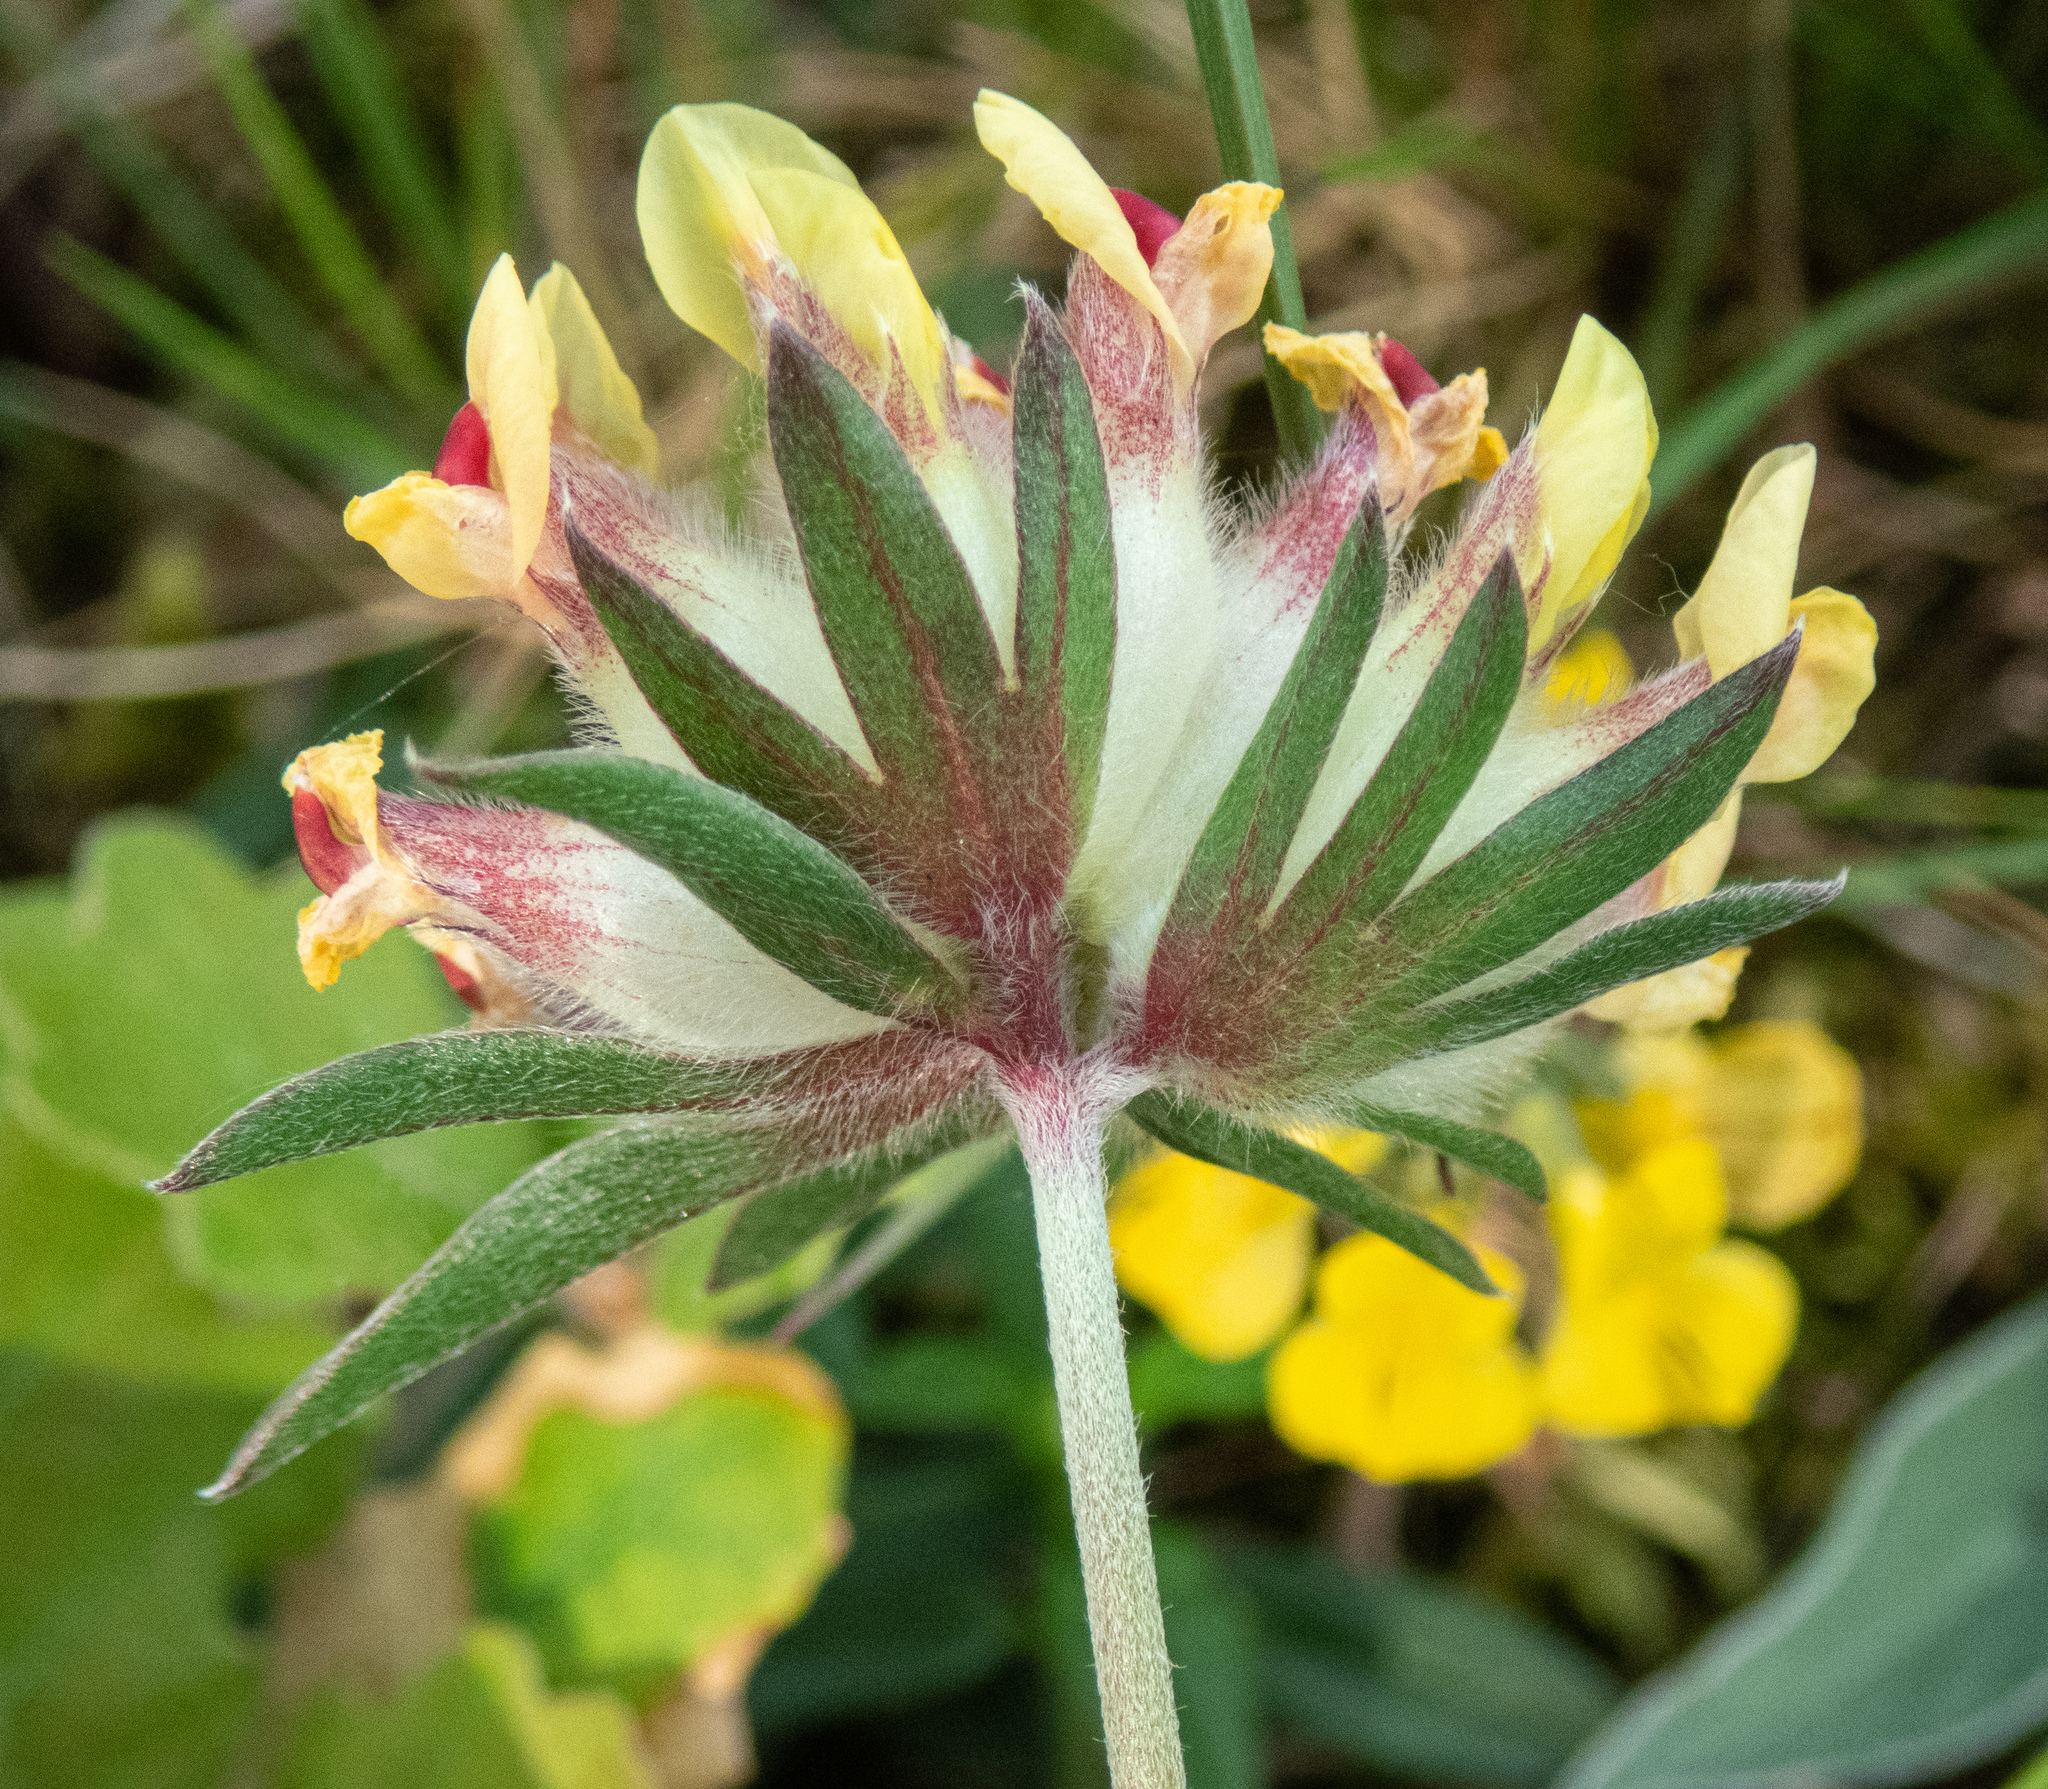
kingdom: Plantae
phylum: Tracheophyta
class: Magnoliopsida
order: Fabales
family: Fabaceae
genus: Anthyllis
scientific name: Anthyllis vulneraria
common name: Kidney vetch
